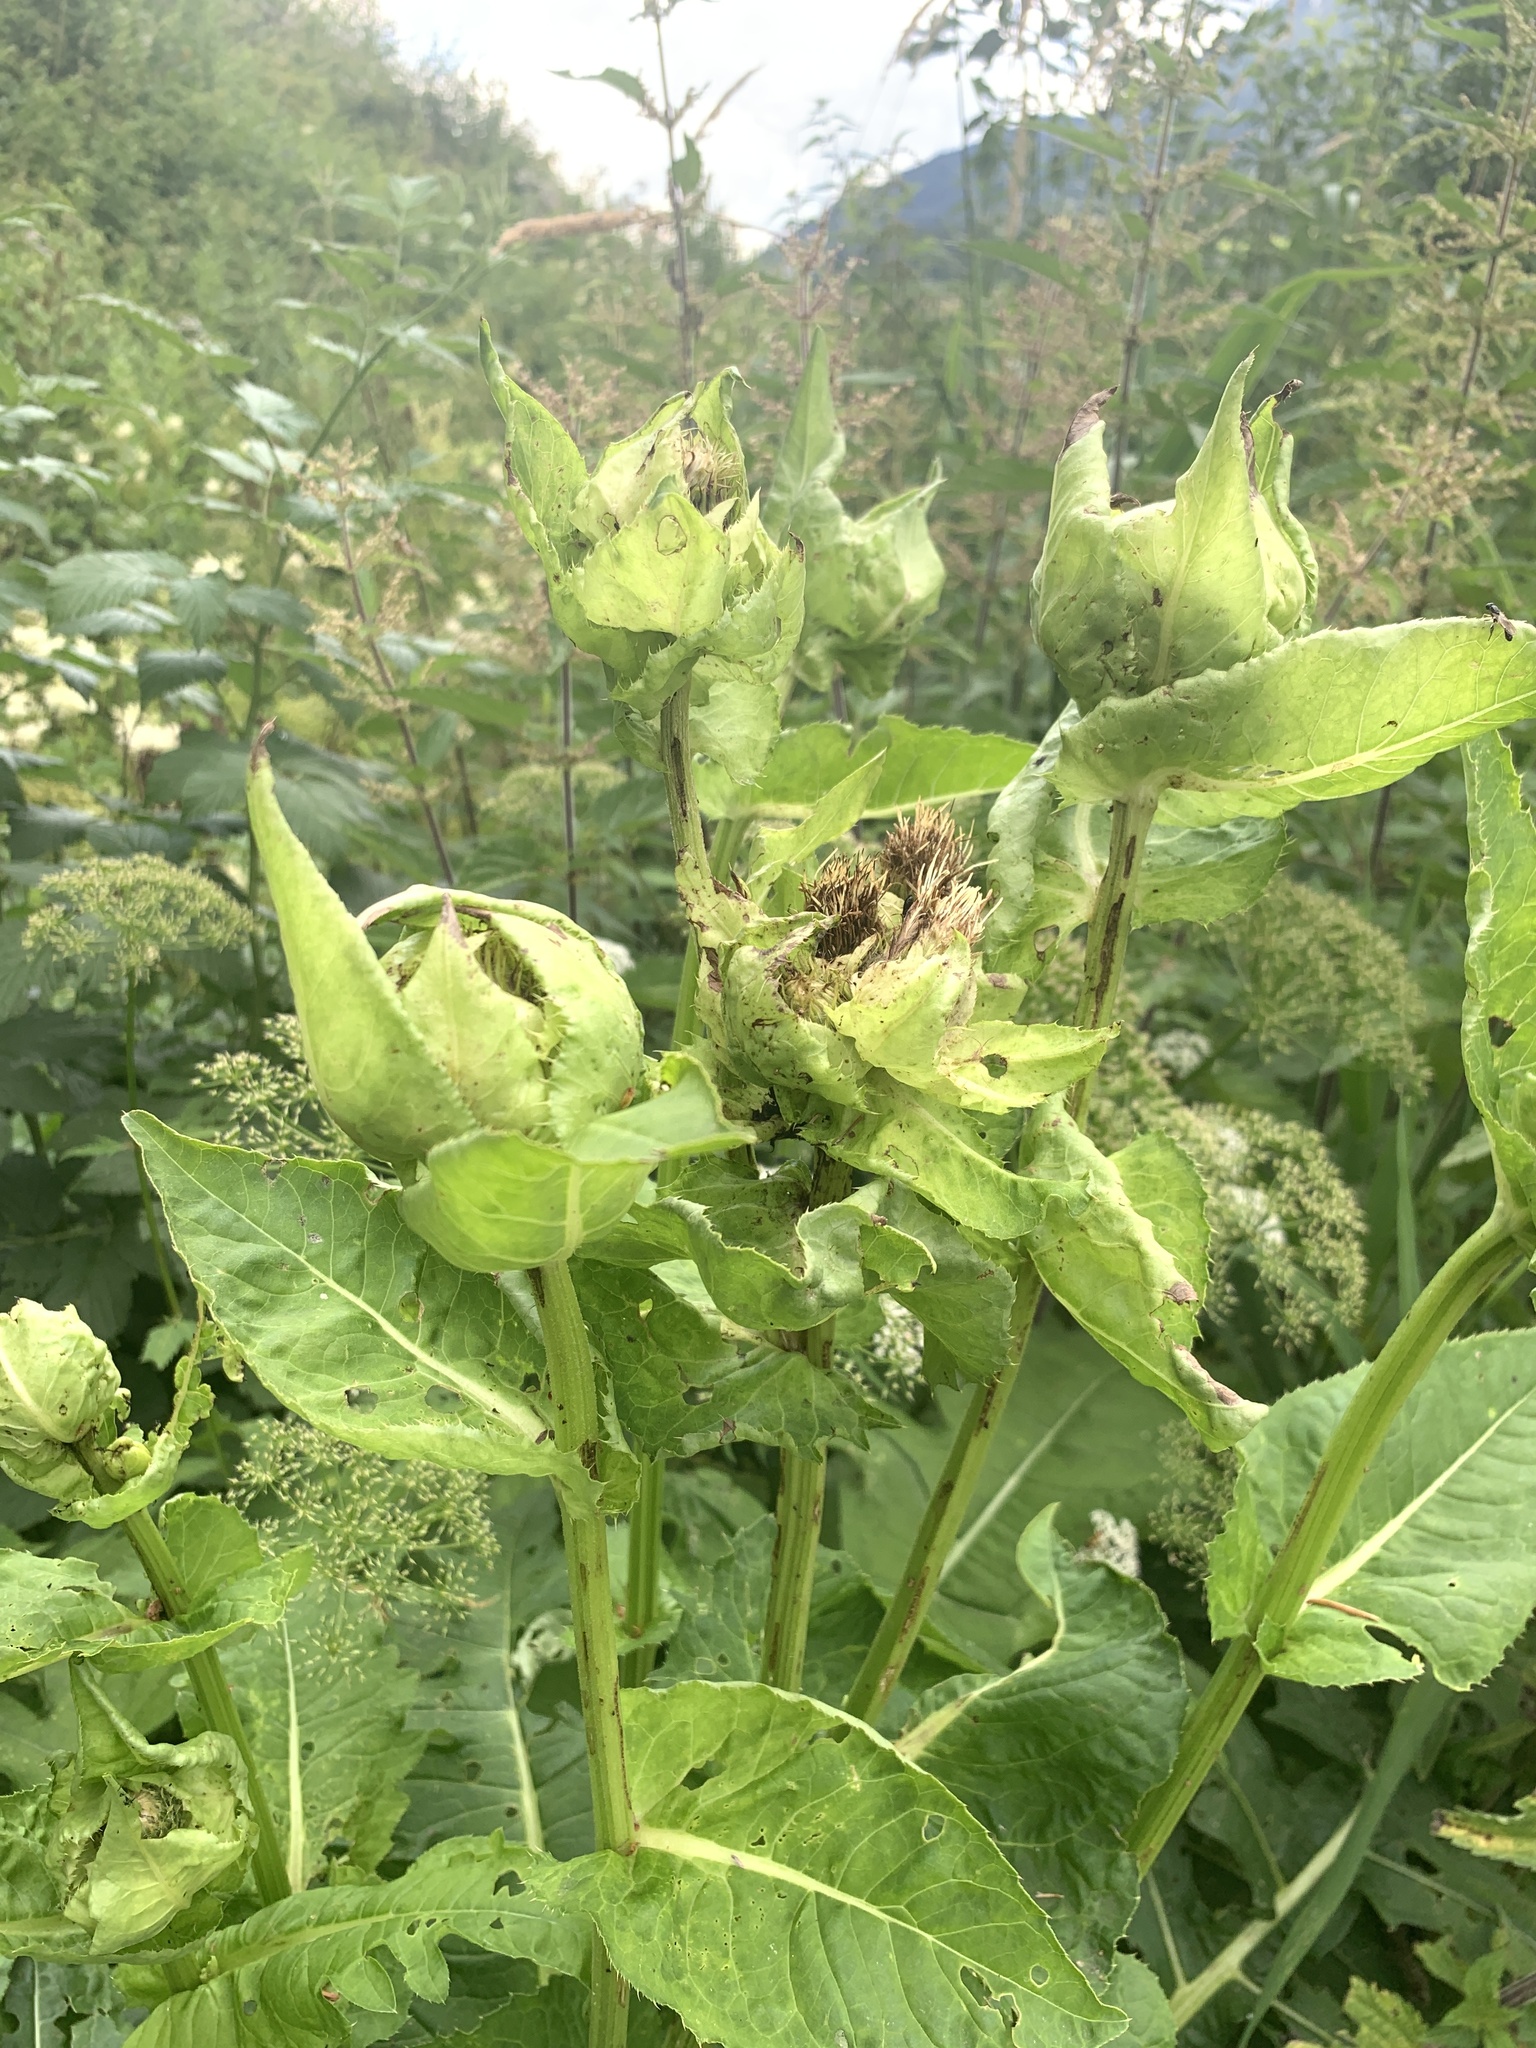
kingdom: Plantae
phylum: Tracheophyta
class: Magnoliopsida
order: Asterales
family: Asteraceae
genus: Cirsium
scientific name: Cirsium oleraceum
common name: Cabbage thistle
